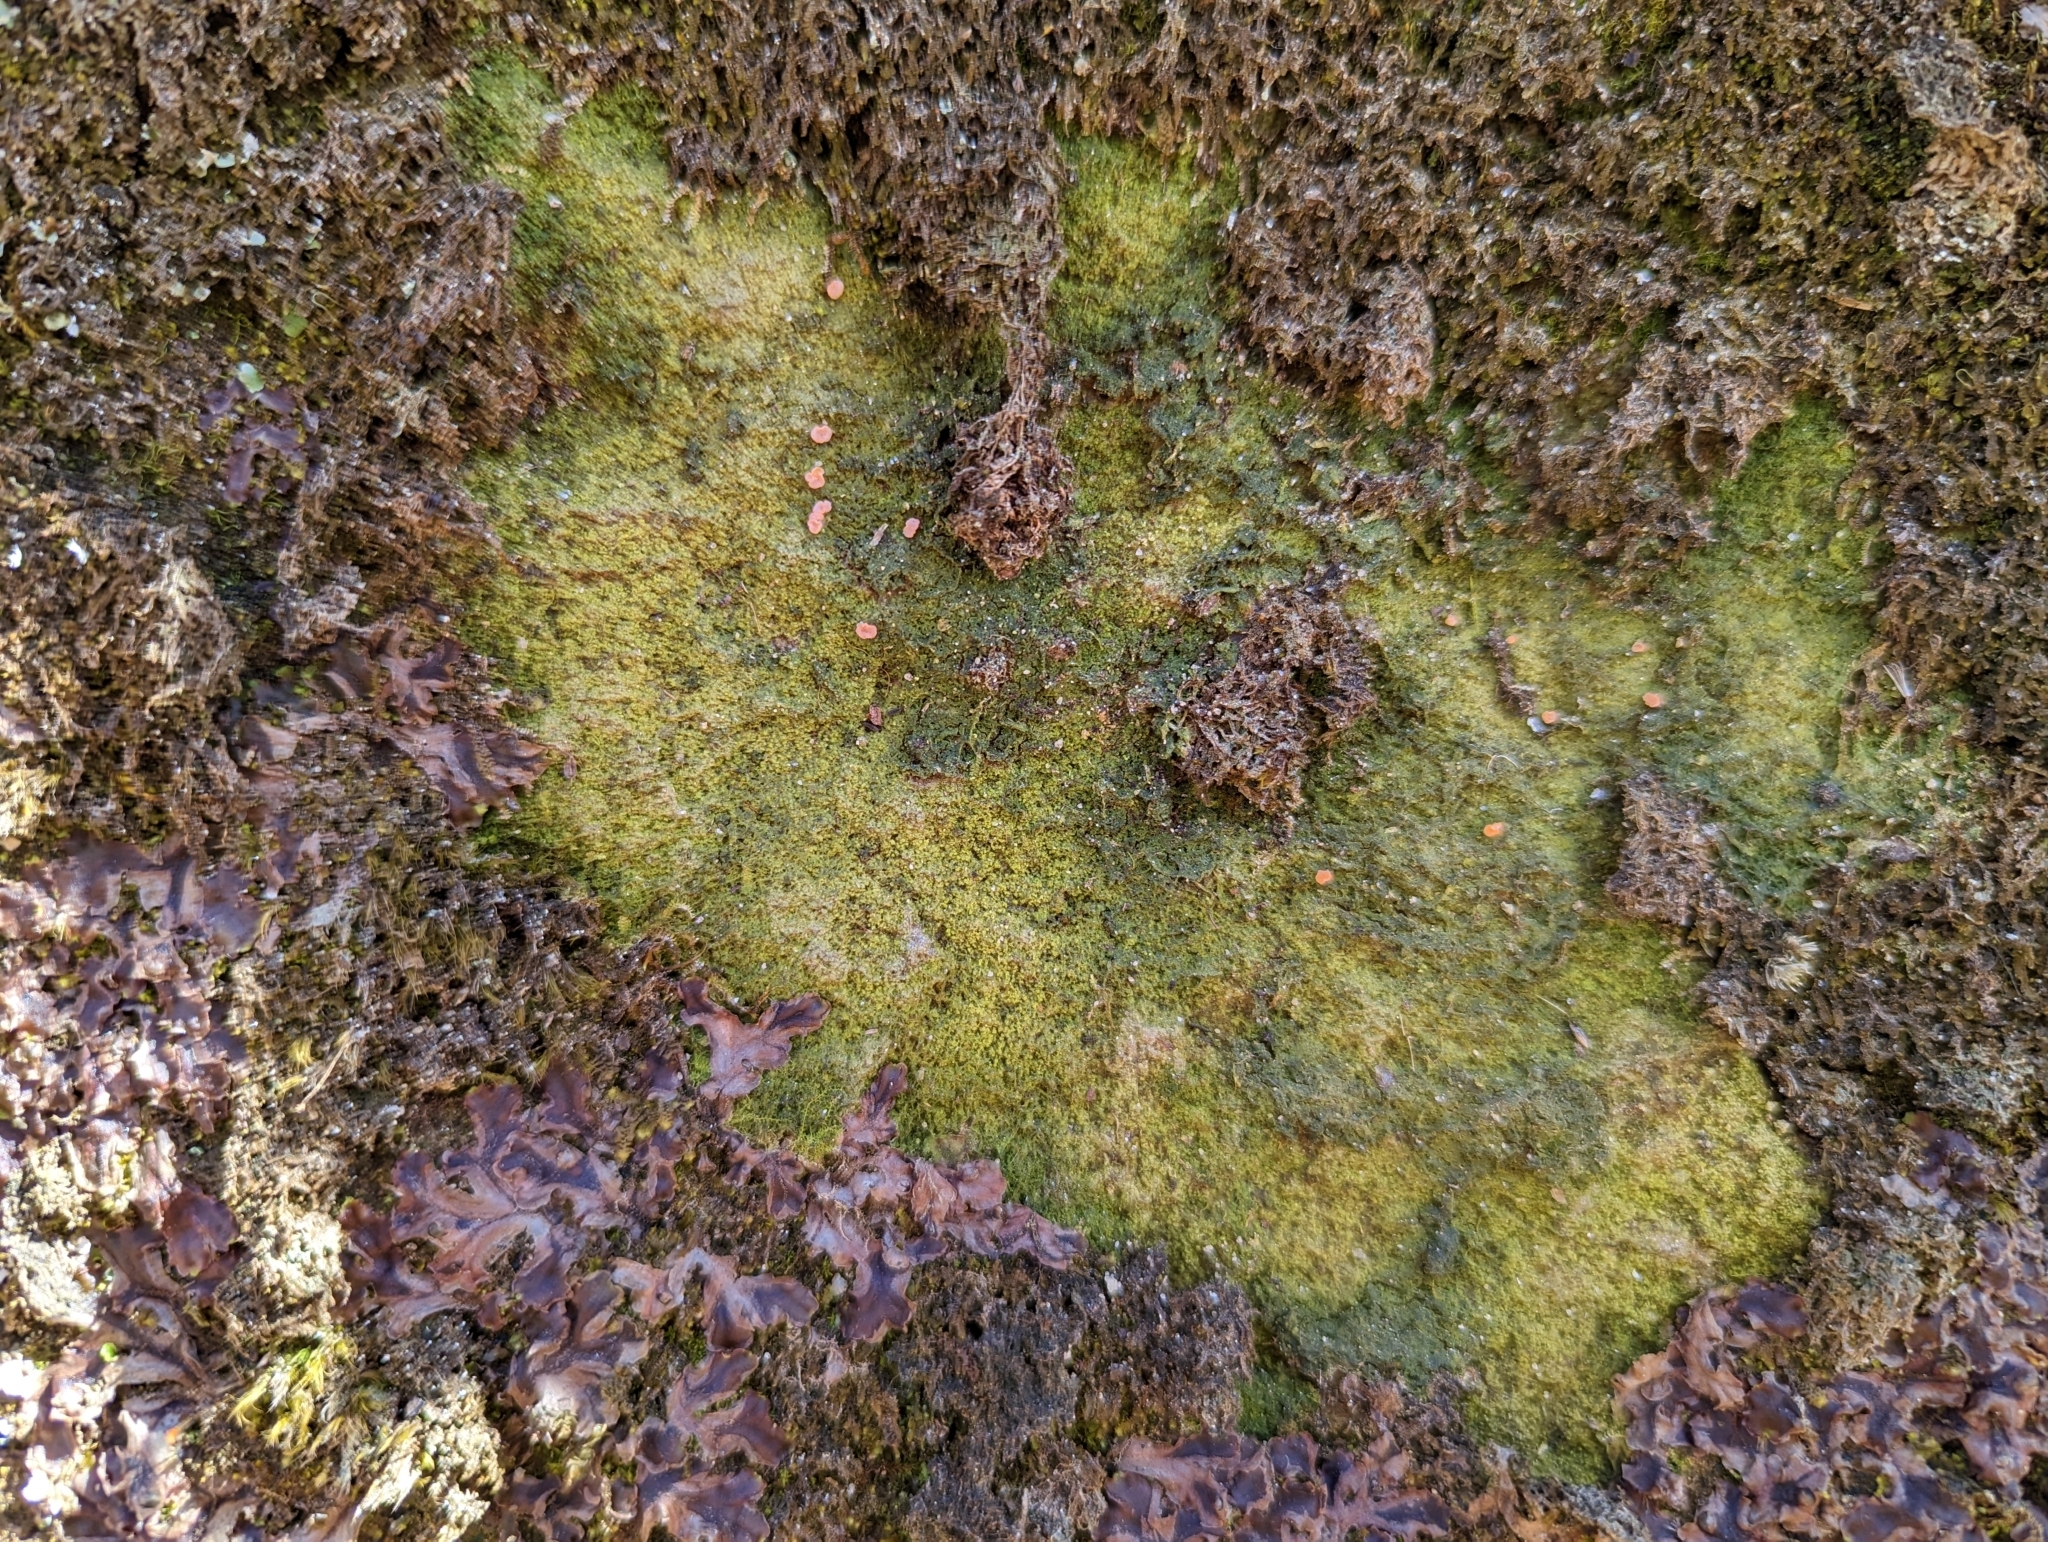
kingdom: Fungi
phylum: Ascomycota
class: Lecanoromycetes
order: Pertusariales
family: Icmadophilaceae
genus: Dibaeis
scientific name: Dibaeis absoluta
